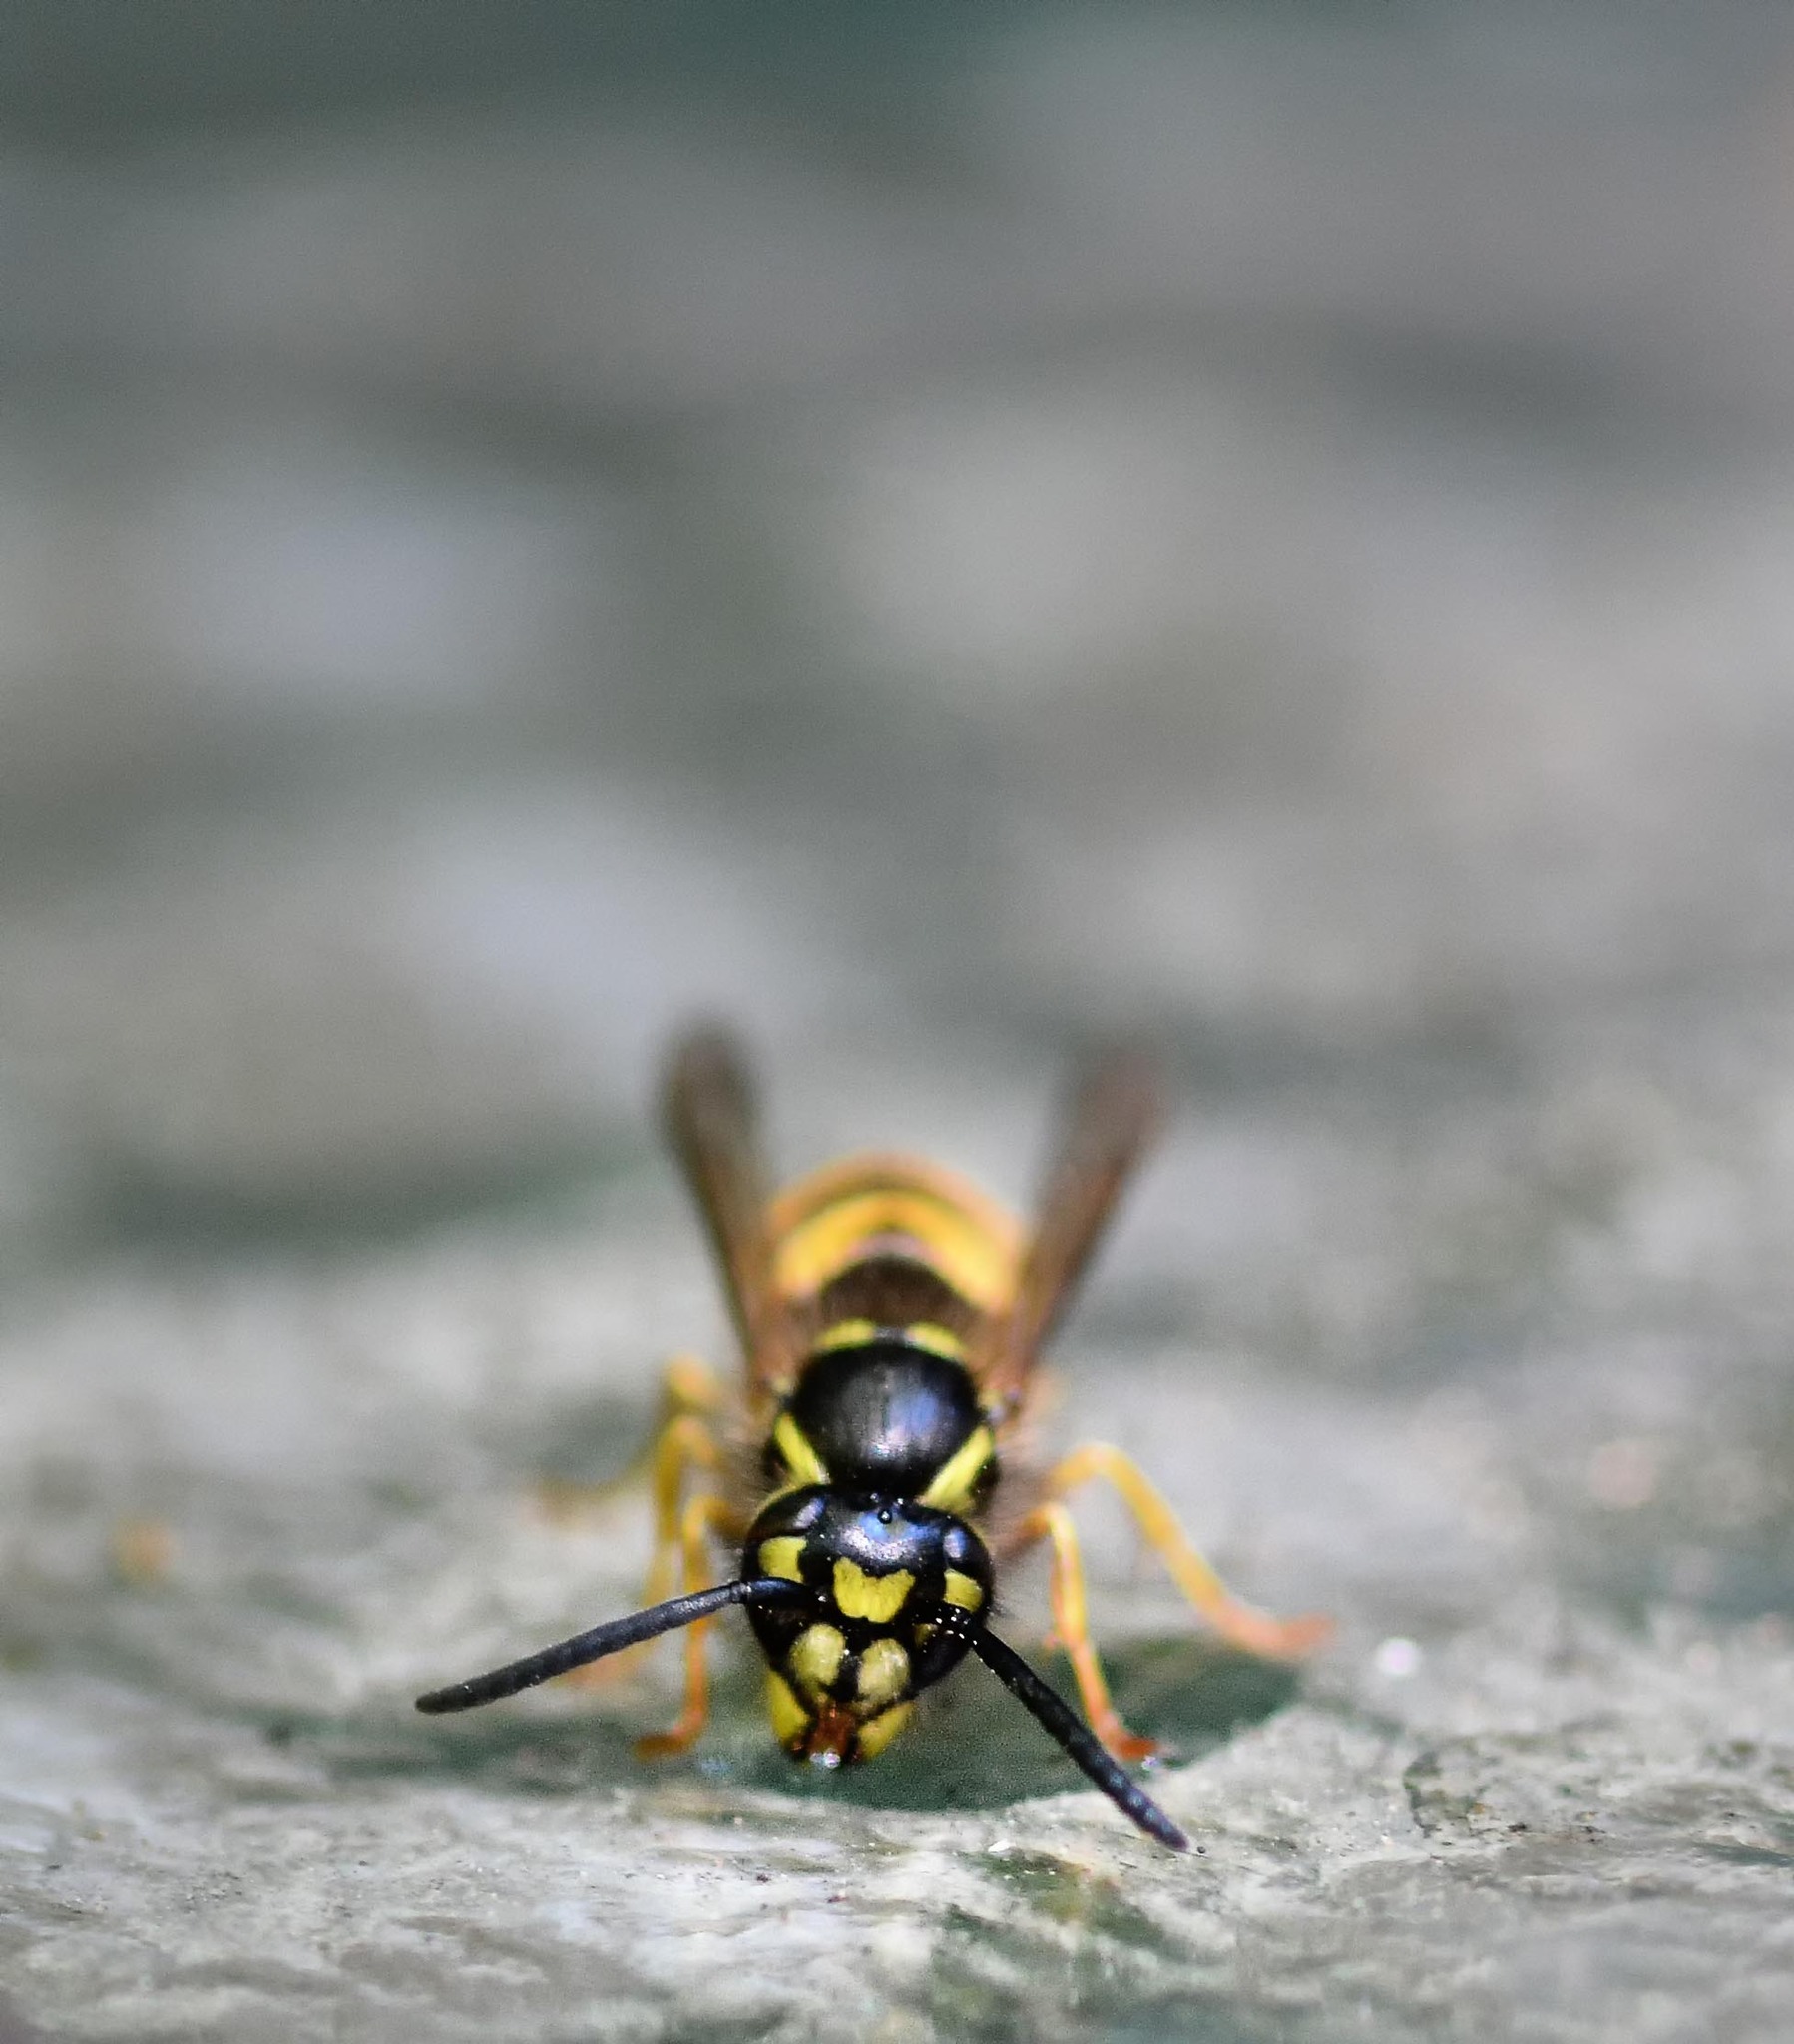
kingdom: Animalia
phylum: Arthropoda
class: Insecta
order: Hymenoptera
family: Vespidae
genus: Vespula
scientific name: Vespula vulgaris
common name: Common wasp
